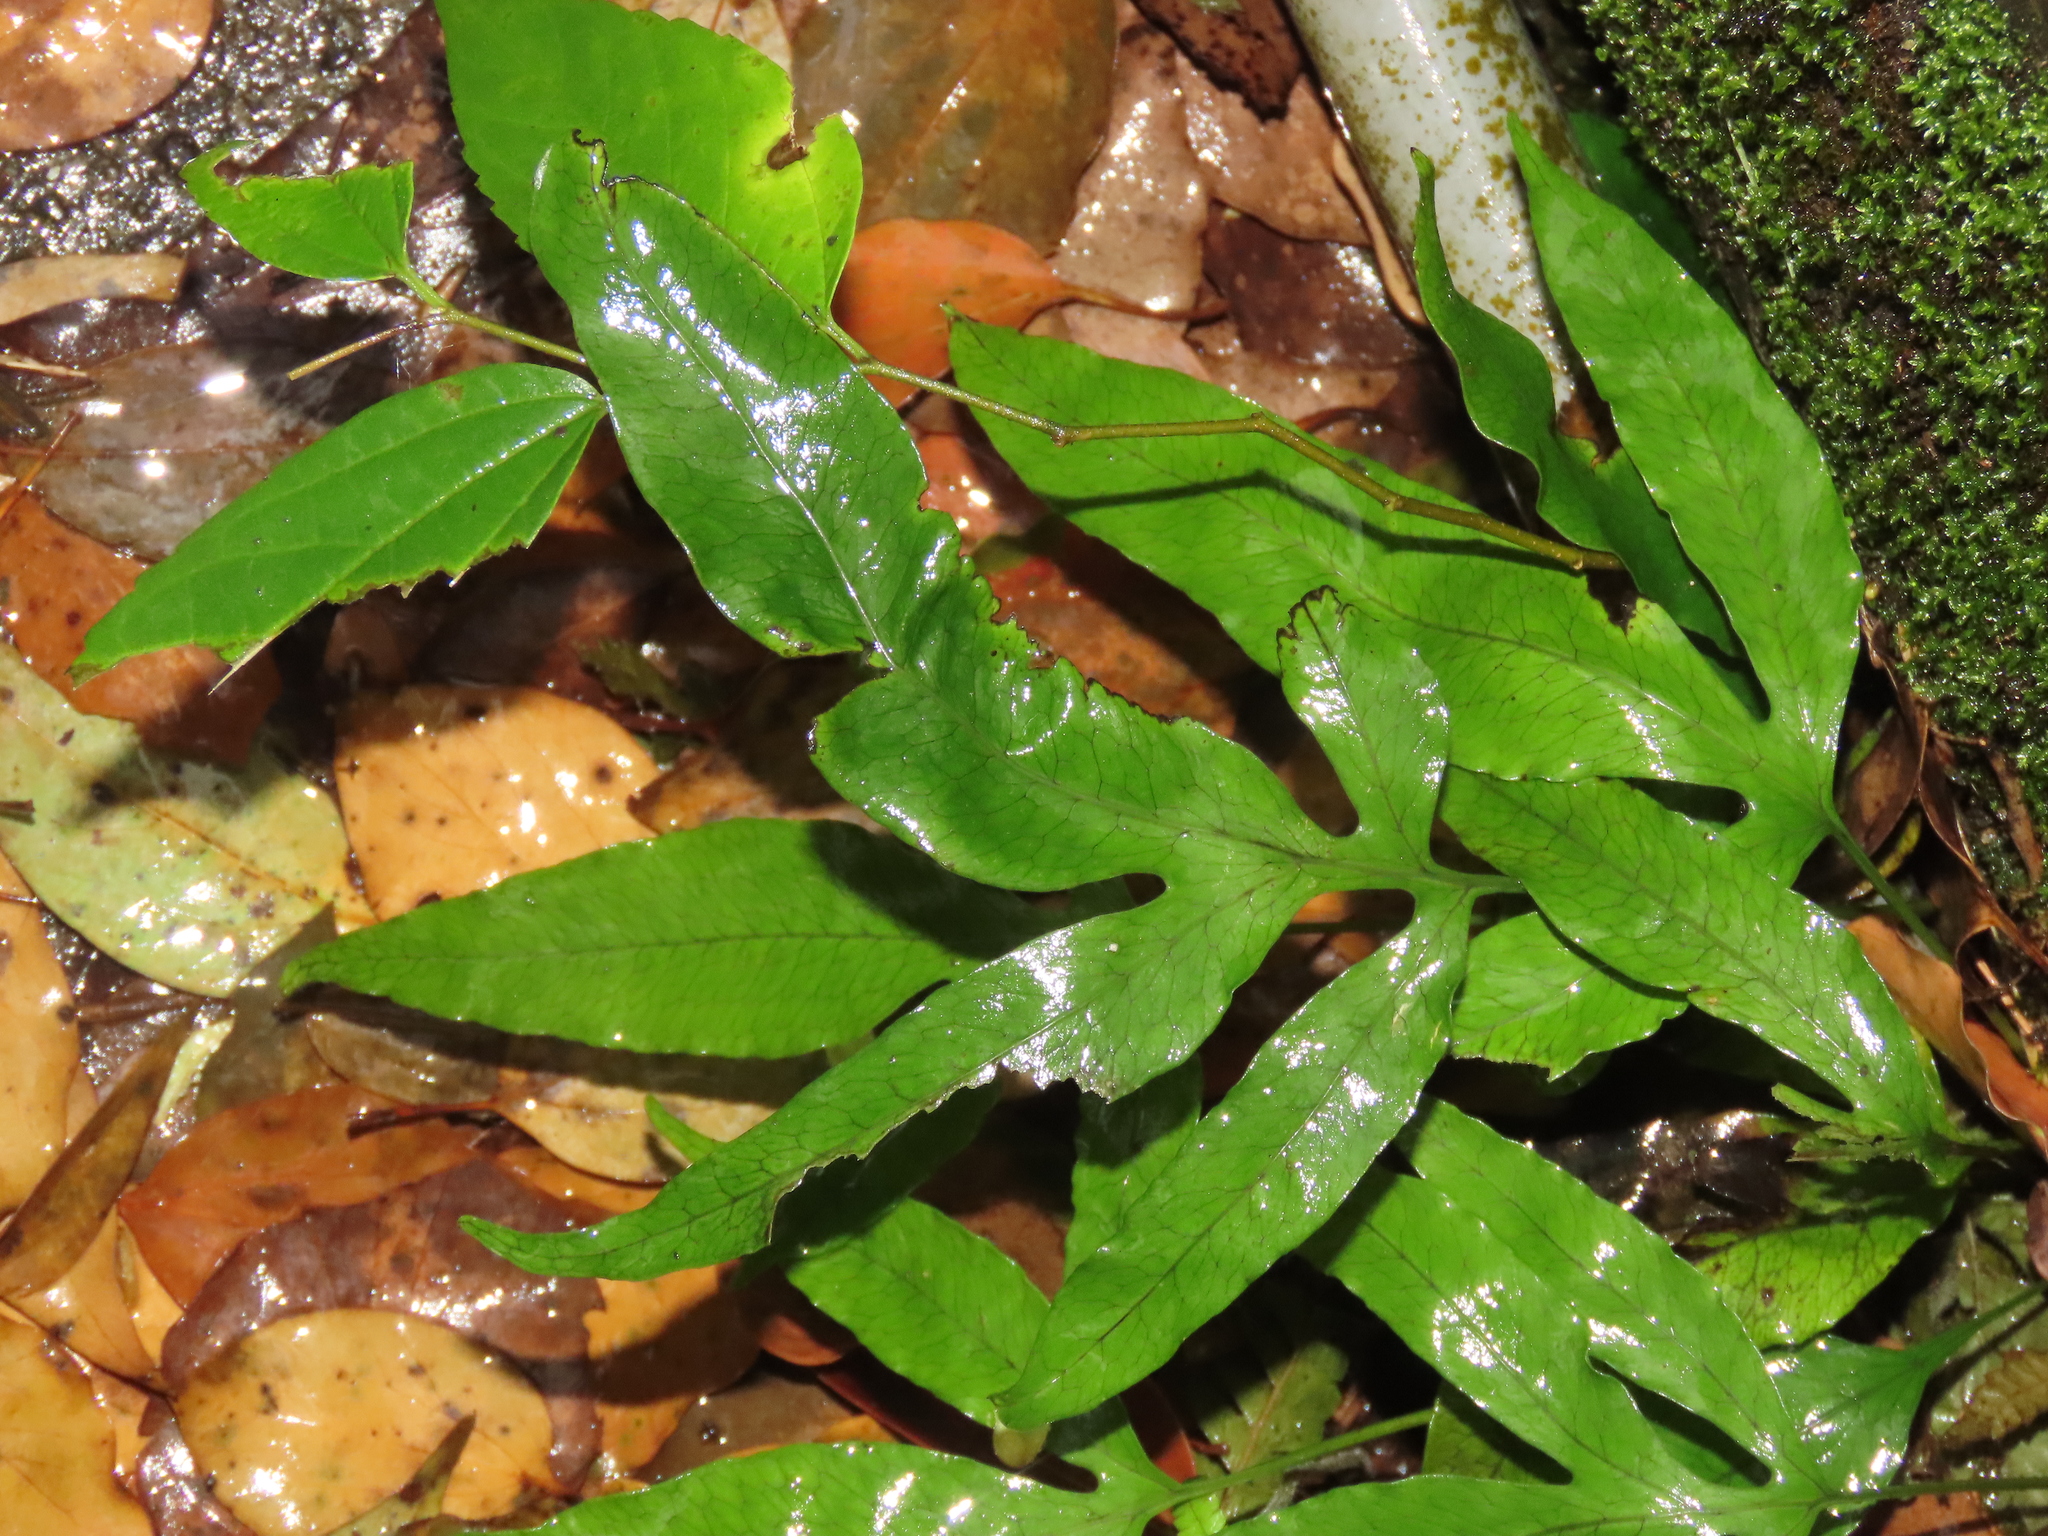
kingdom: Plantae
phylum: Tracheophyta
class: Polypodiopsida
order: Polypodiales
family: Polypodiaceae
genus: Leptochilus
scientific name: Leptochilus ellipticus
